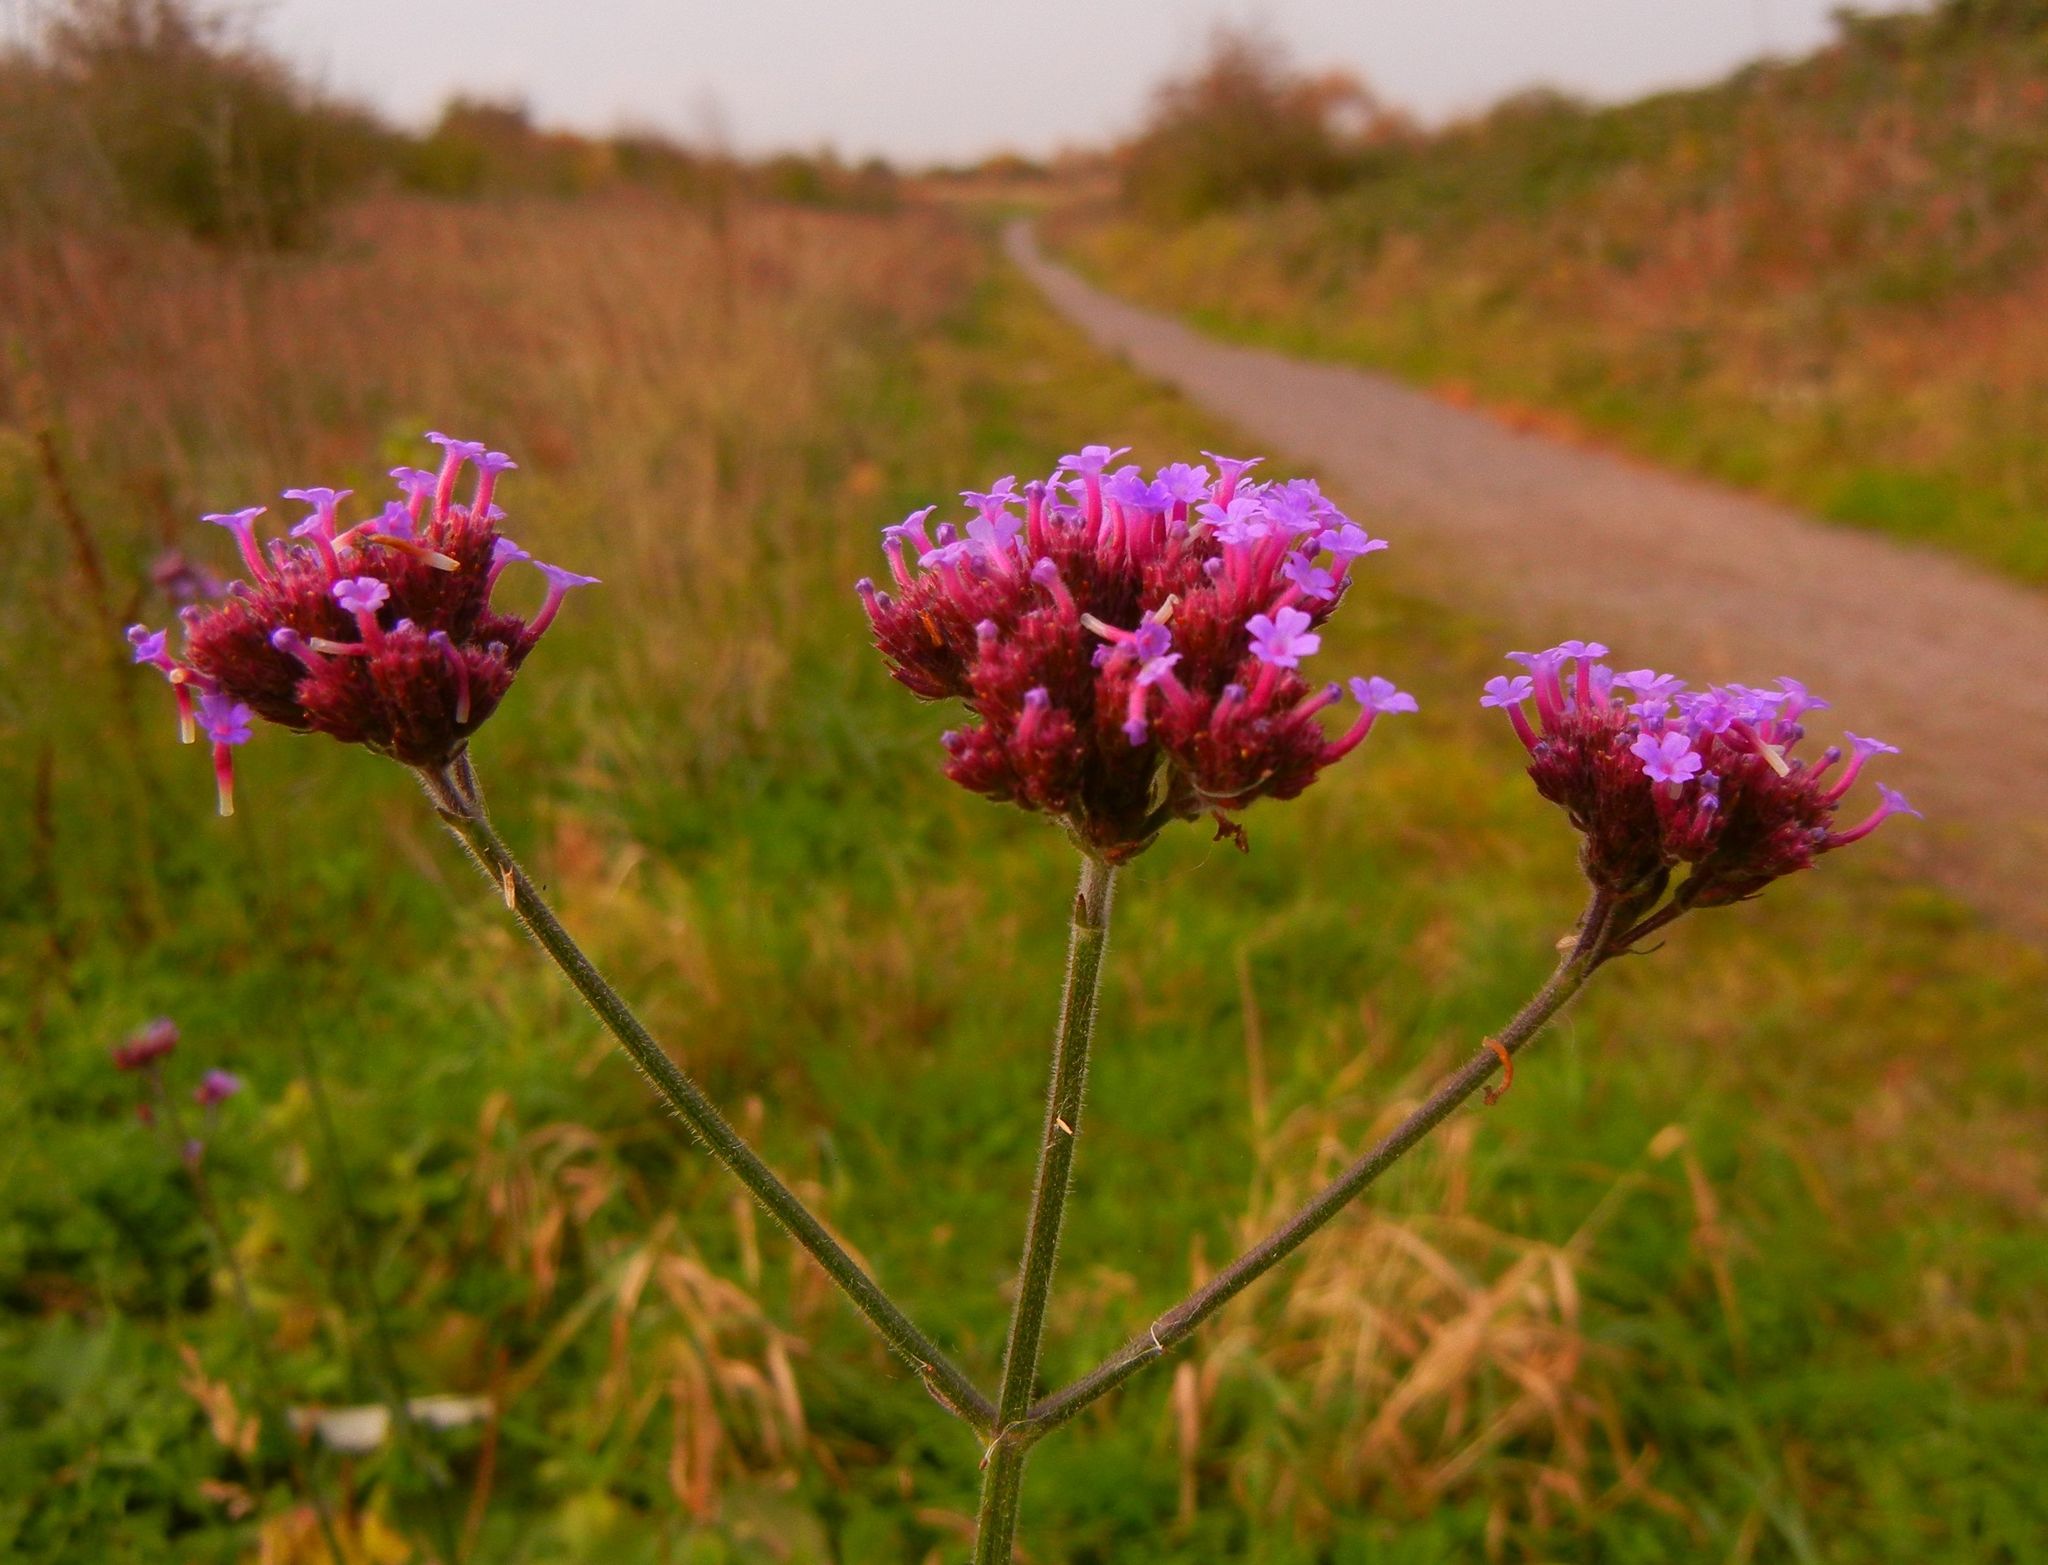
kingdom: Plantae
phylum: Tracheophyta
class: Magnoliopsida
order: Lamiales
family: Verbenaceae
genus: Verbena
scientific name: Verbena bonariensis
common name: Purpletop vervain
